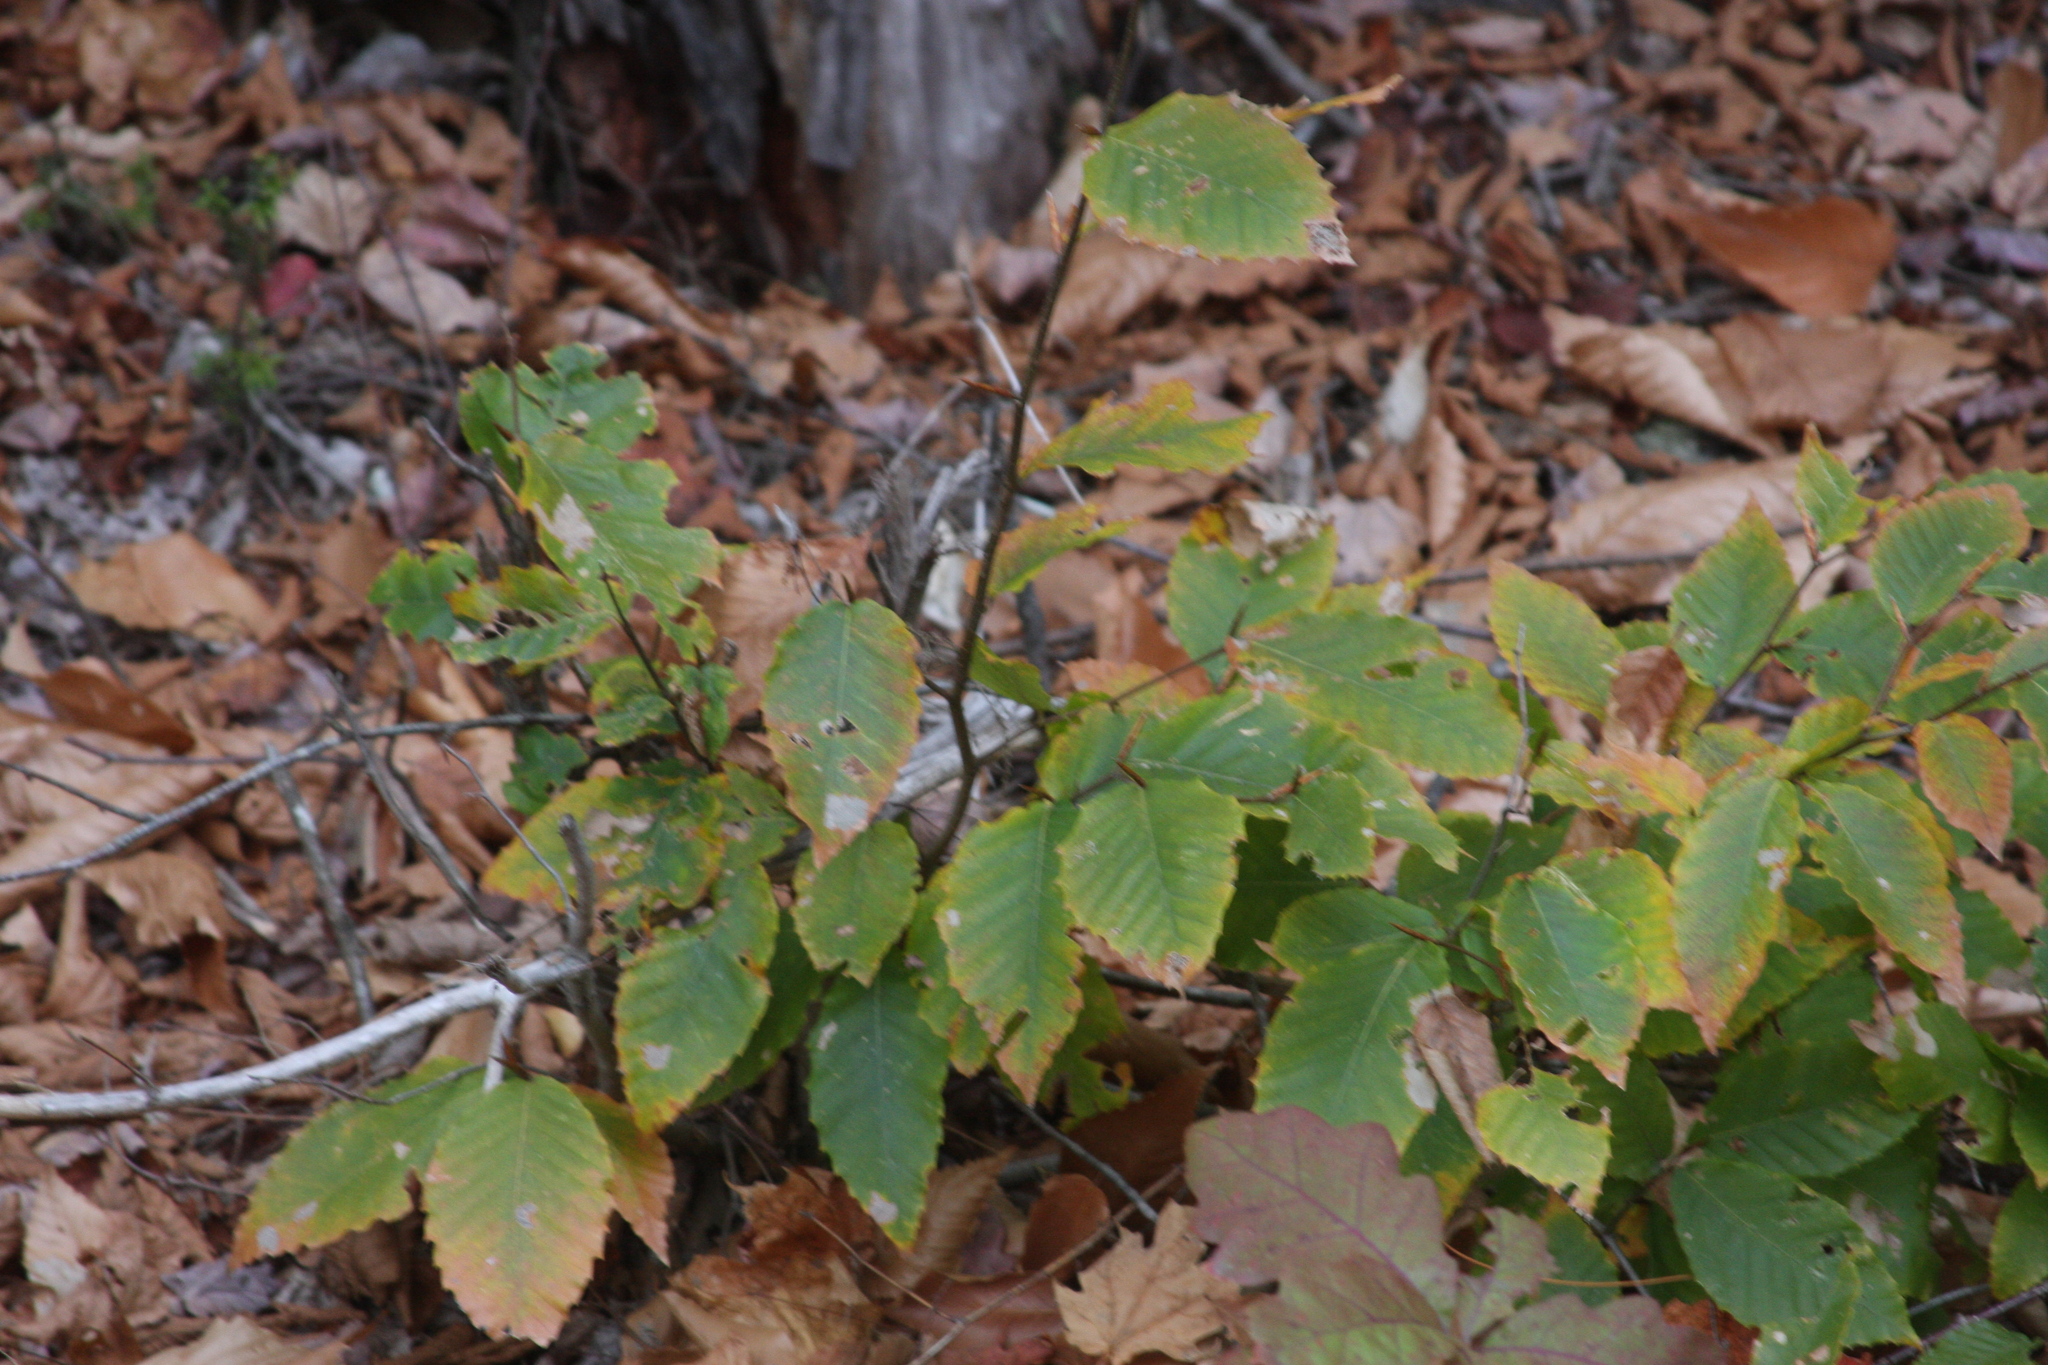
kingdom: Plantae
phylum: Tracheophyta
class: Magnoliopsida
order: Fagales
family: Fagaceae
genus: Fagus
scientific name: Fagus grandifolia
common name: American beech
